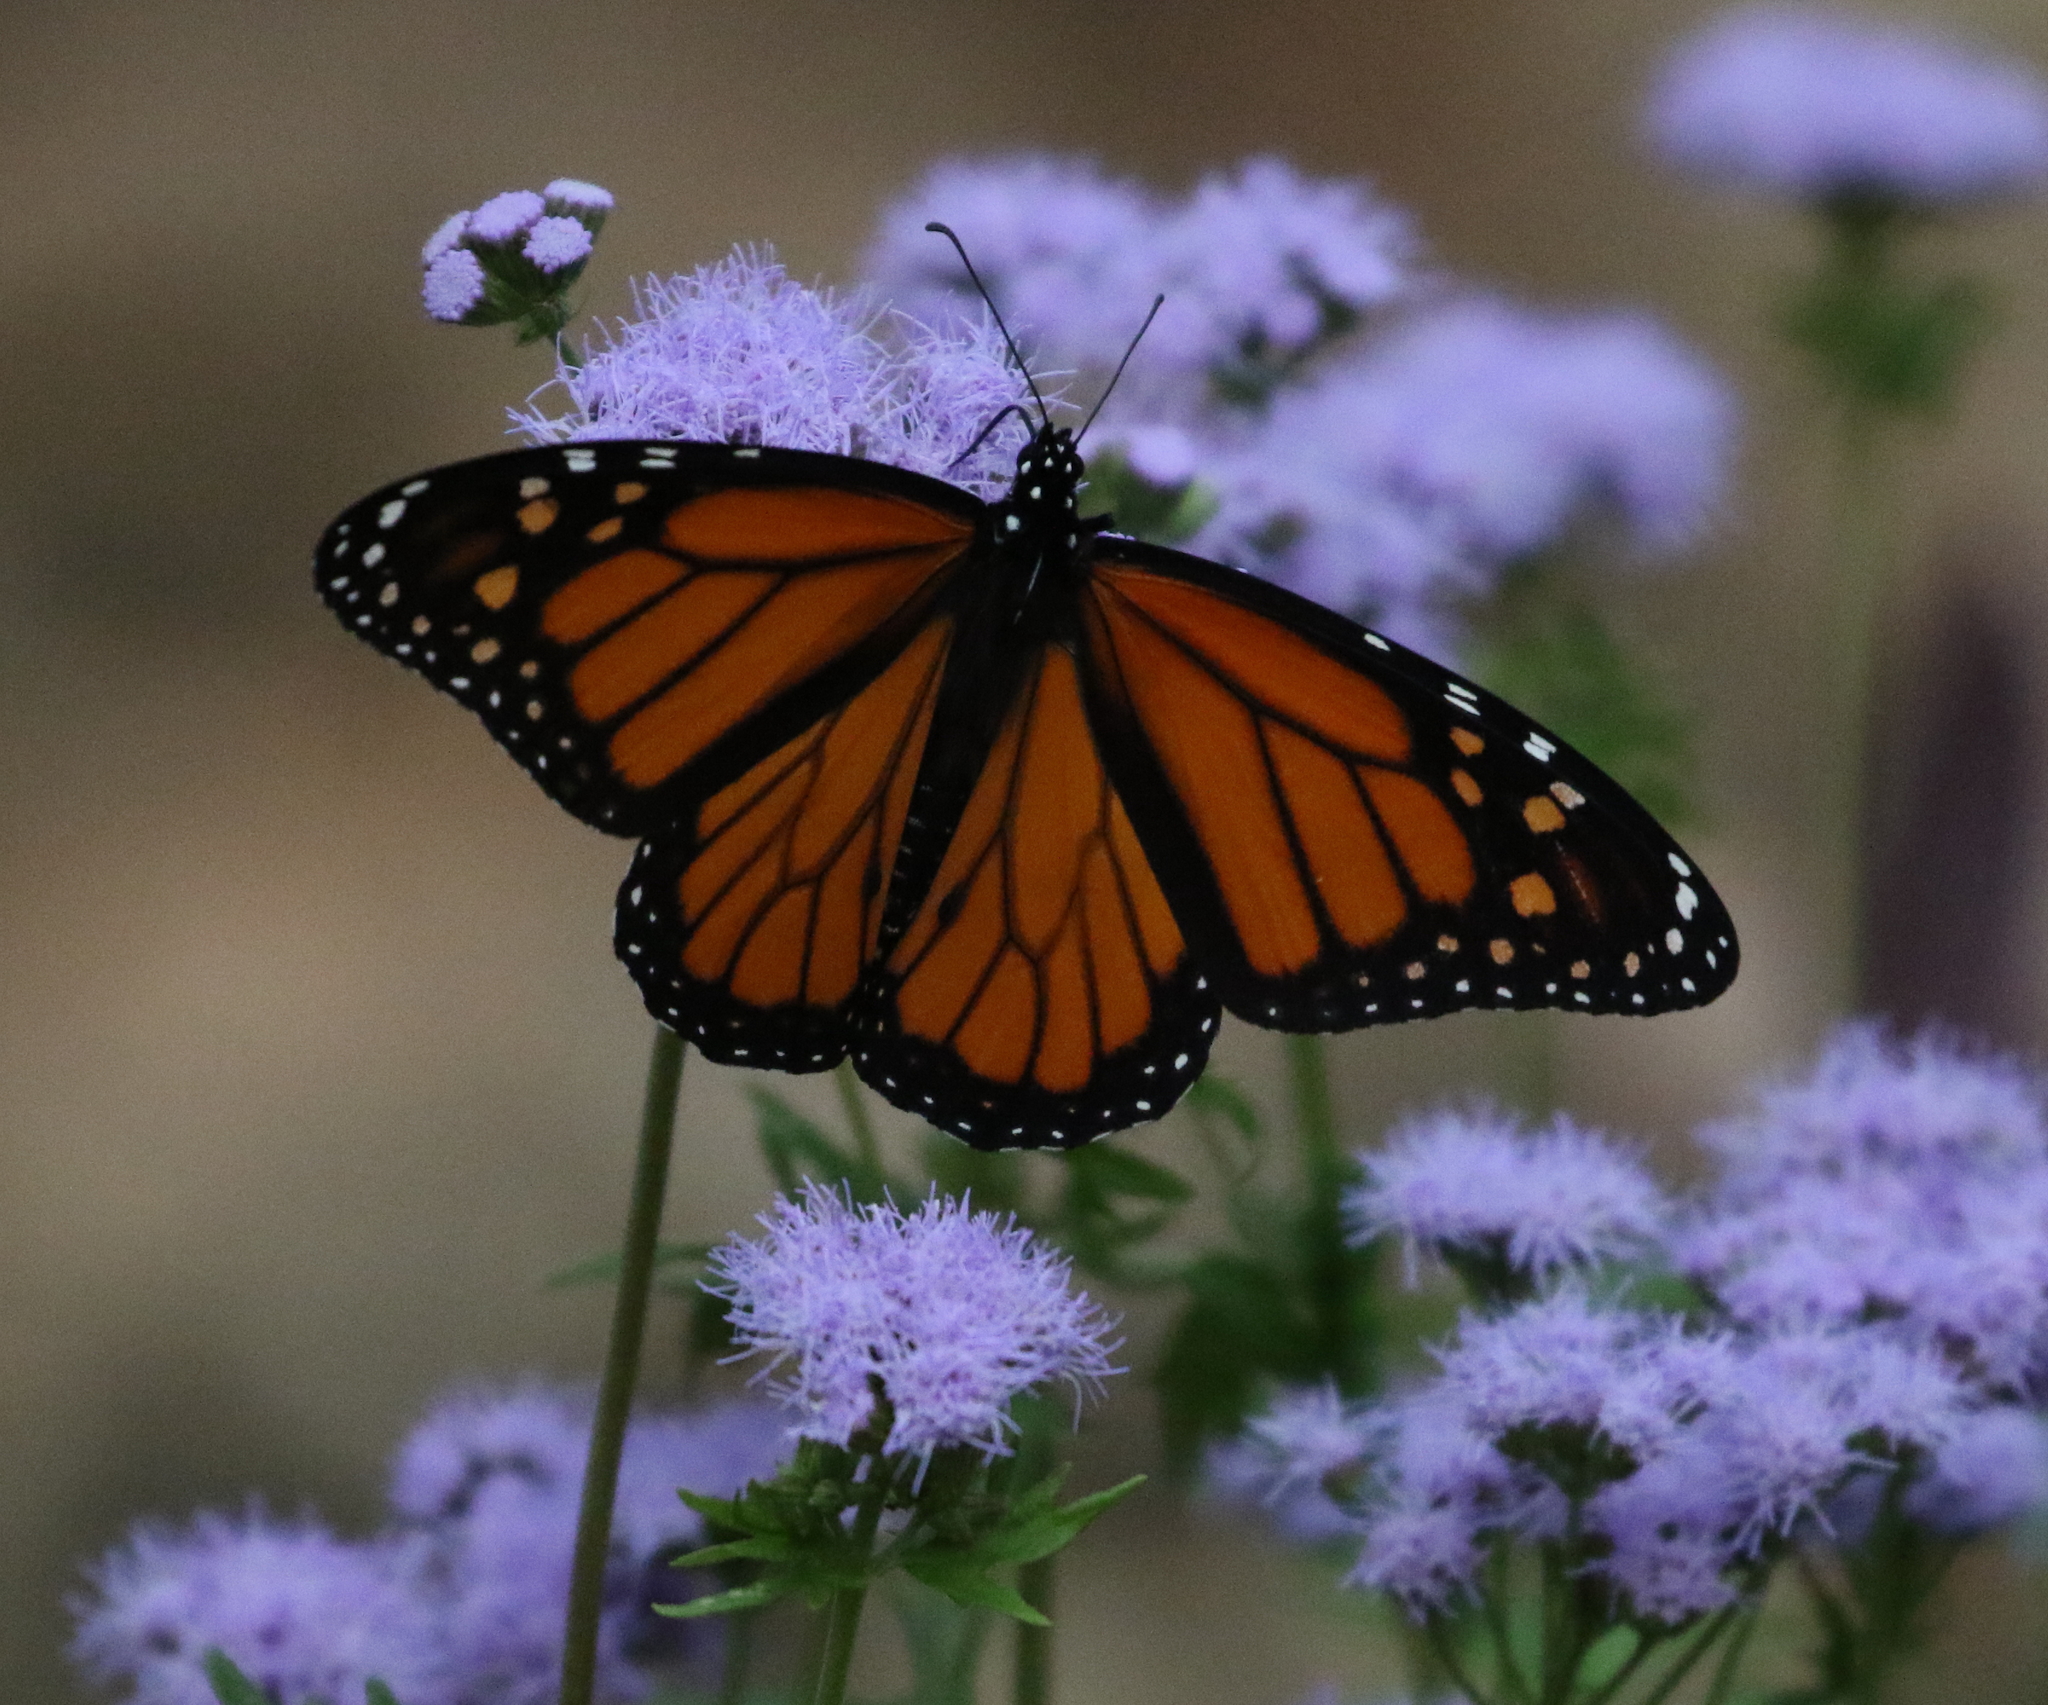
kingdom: Animalia
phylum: Arthropoda
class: Insecta
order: Lepidoptera
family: Nymphalidae
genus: Danaus
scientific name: Danaus plexippus
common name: Monarch
